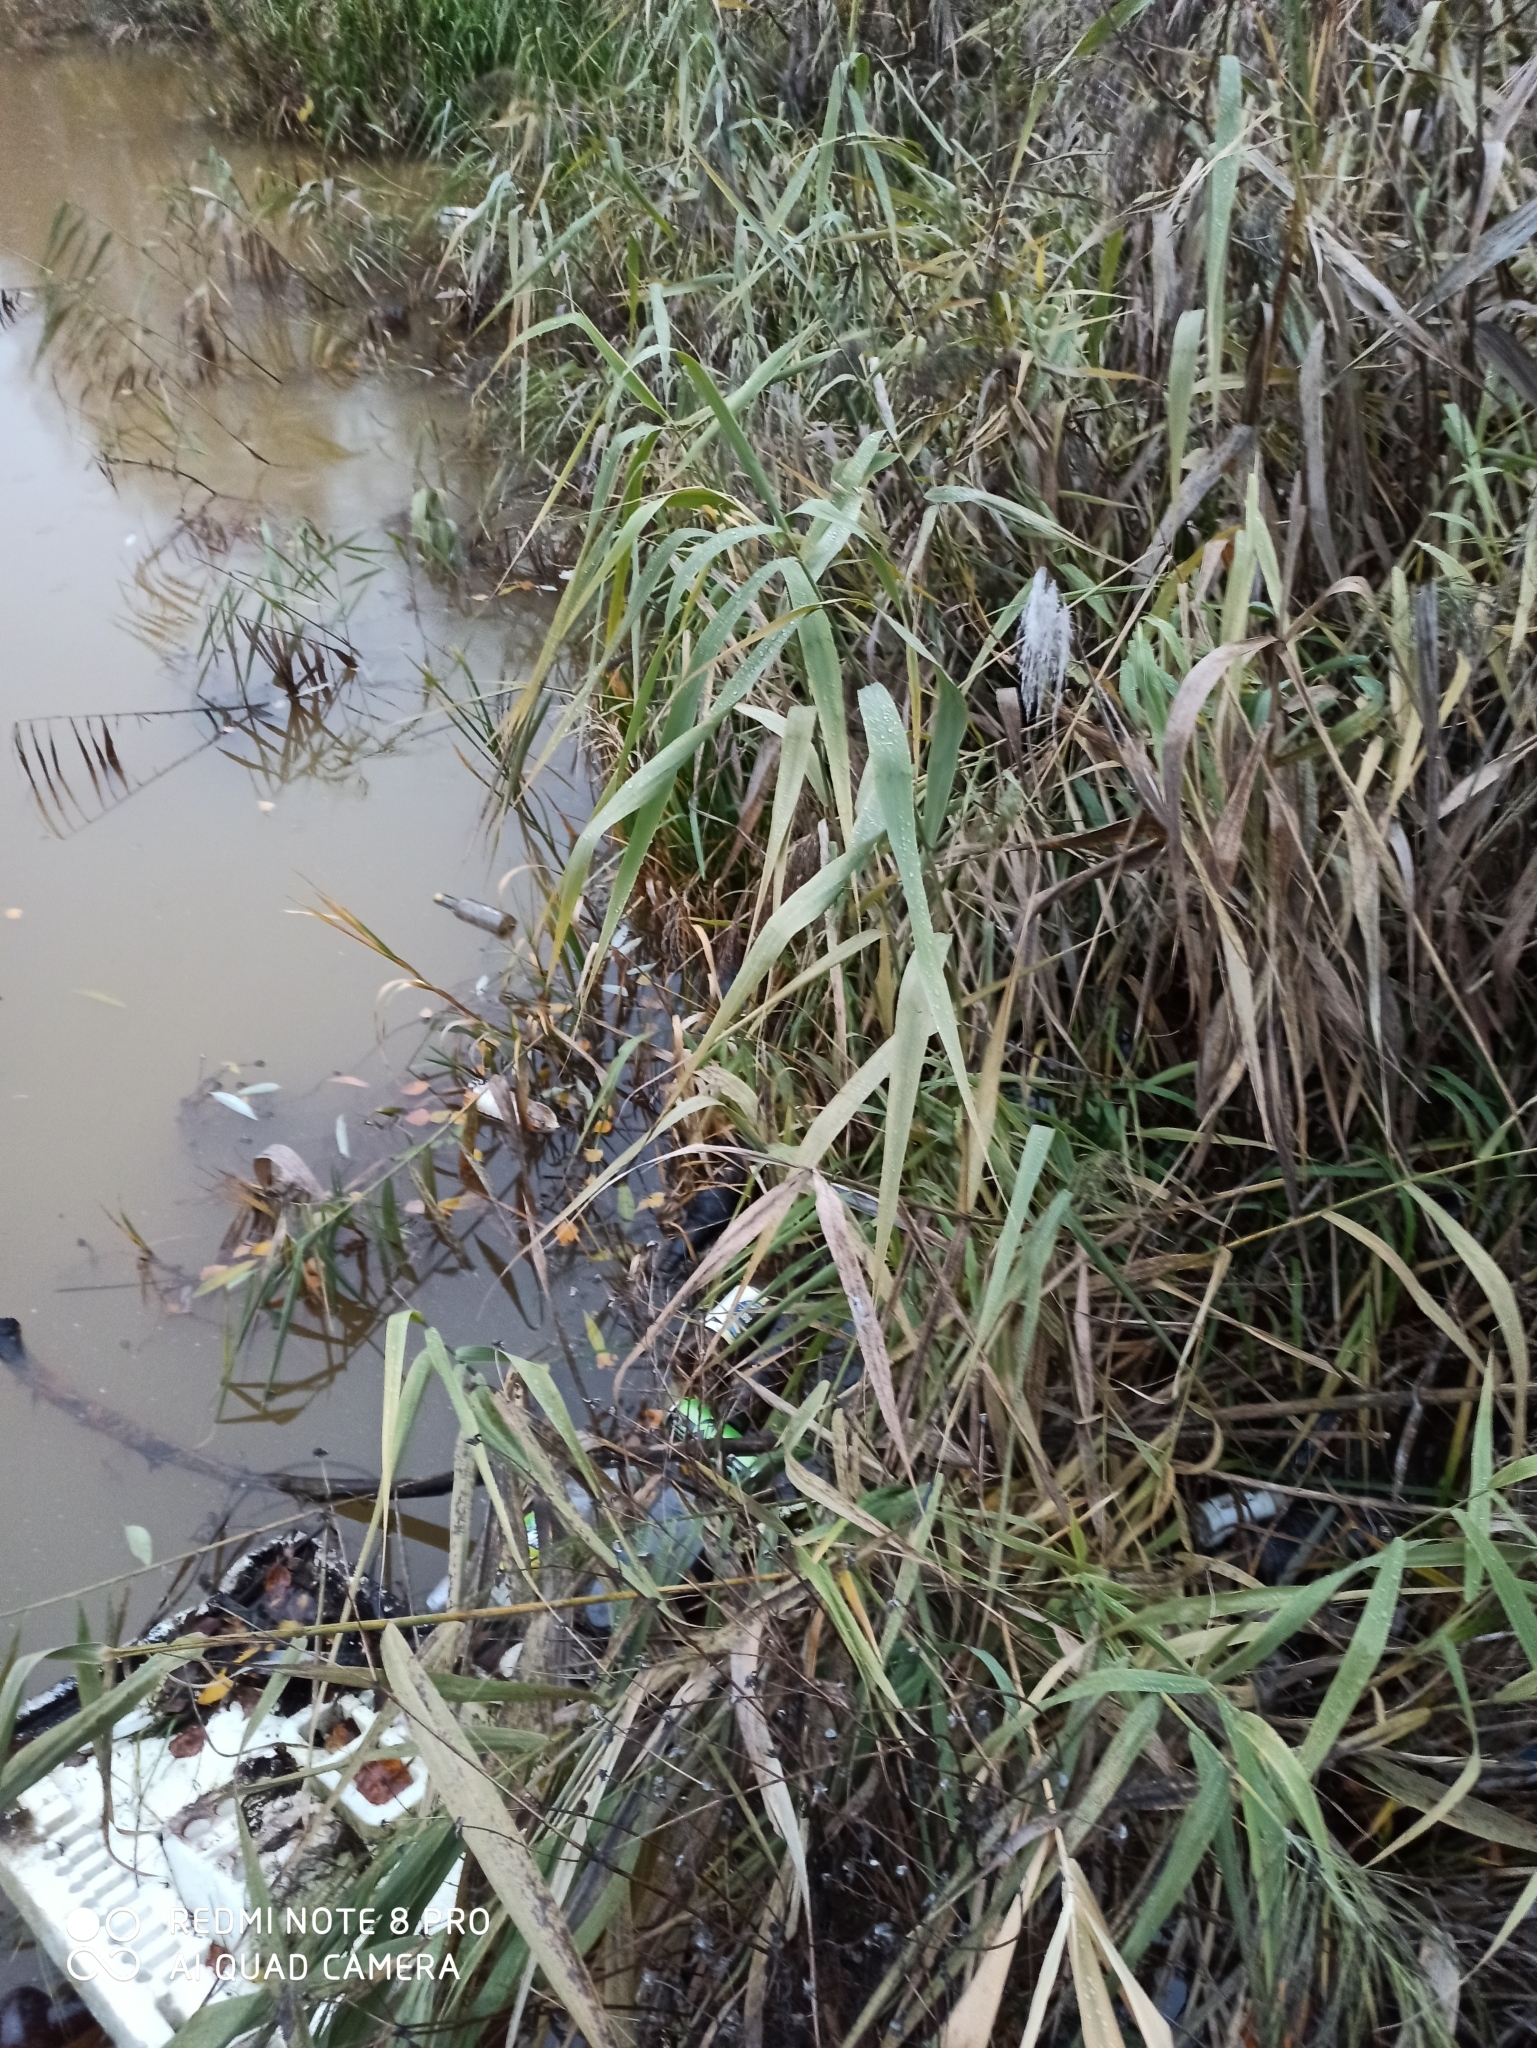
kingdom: Plantae
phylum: Tracheophyta
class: Liliopsida
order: Poales
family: Poaceae
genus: Phragmites
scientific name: Phragmites australis
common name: Common reed
